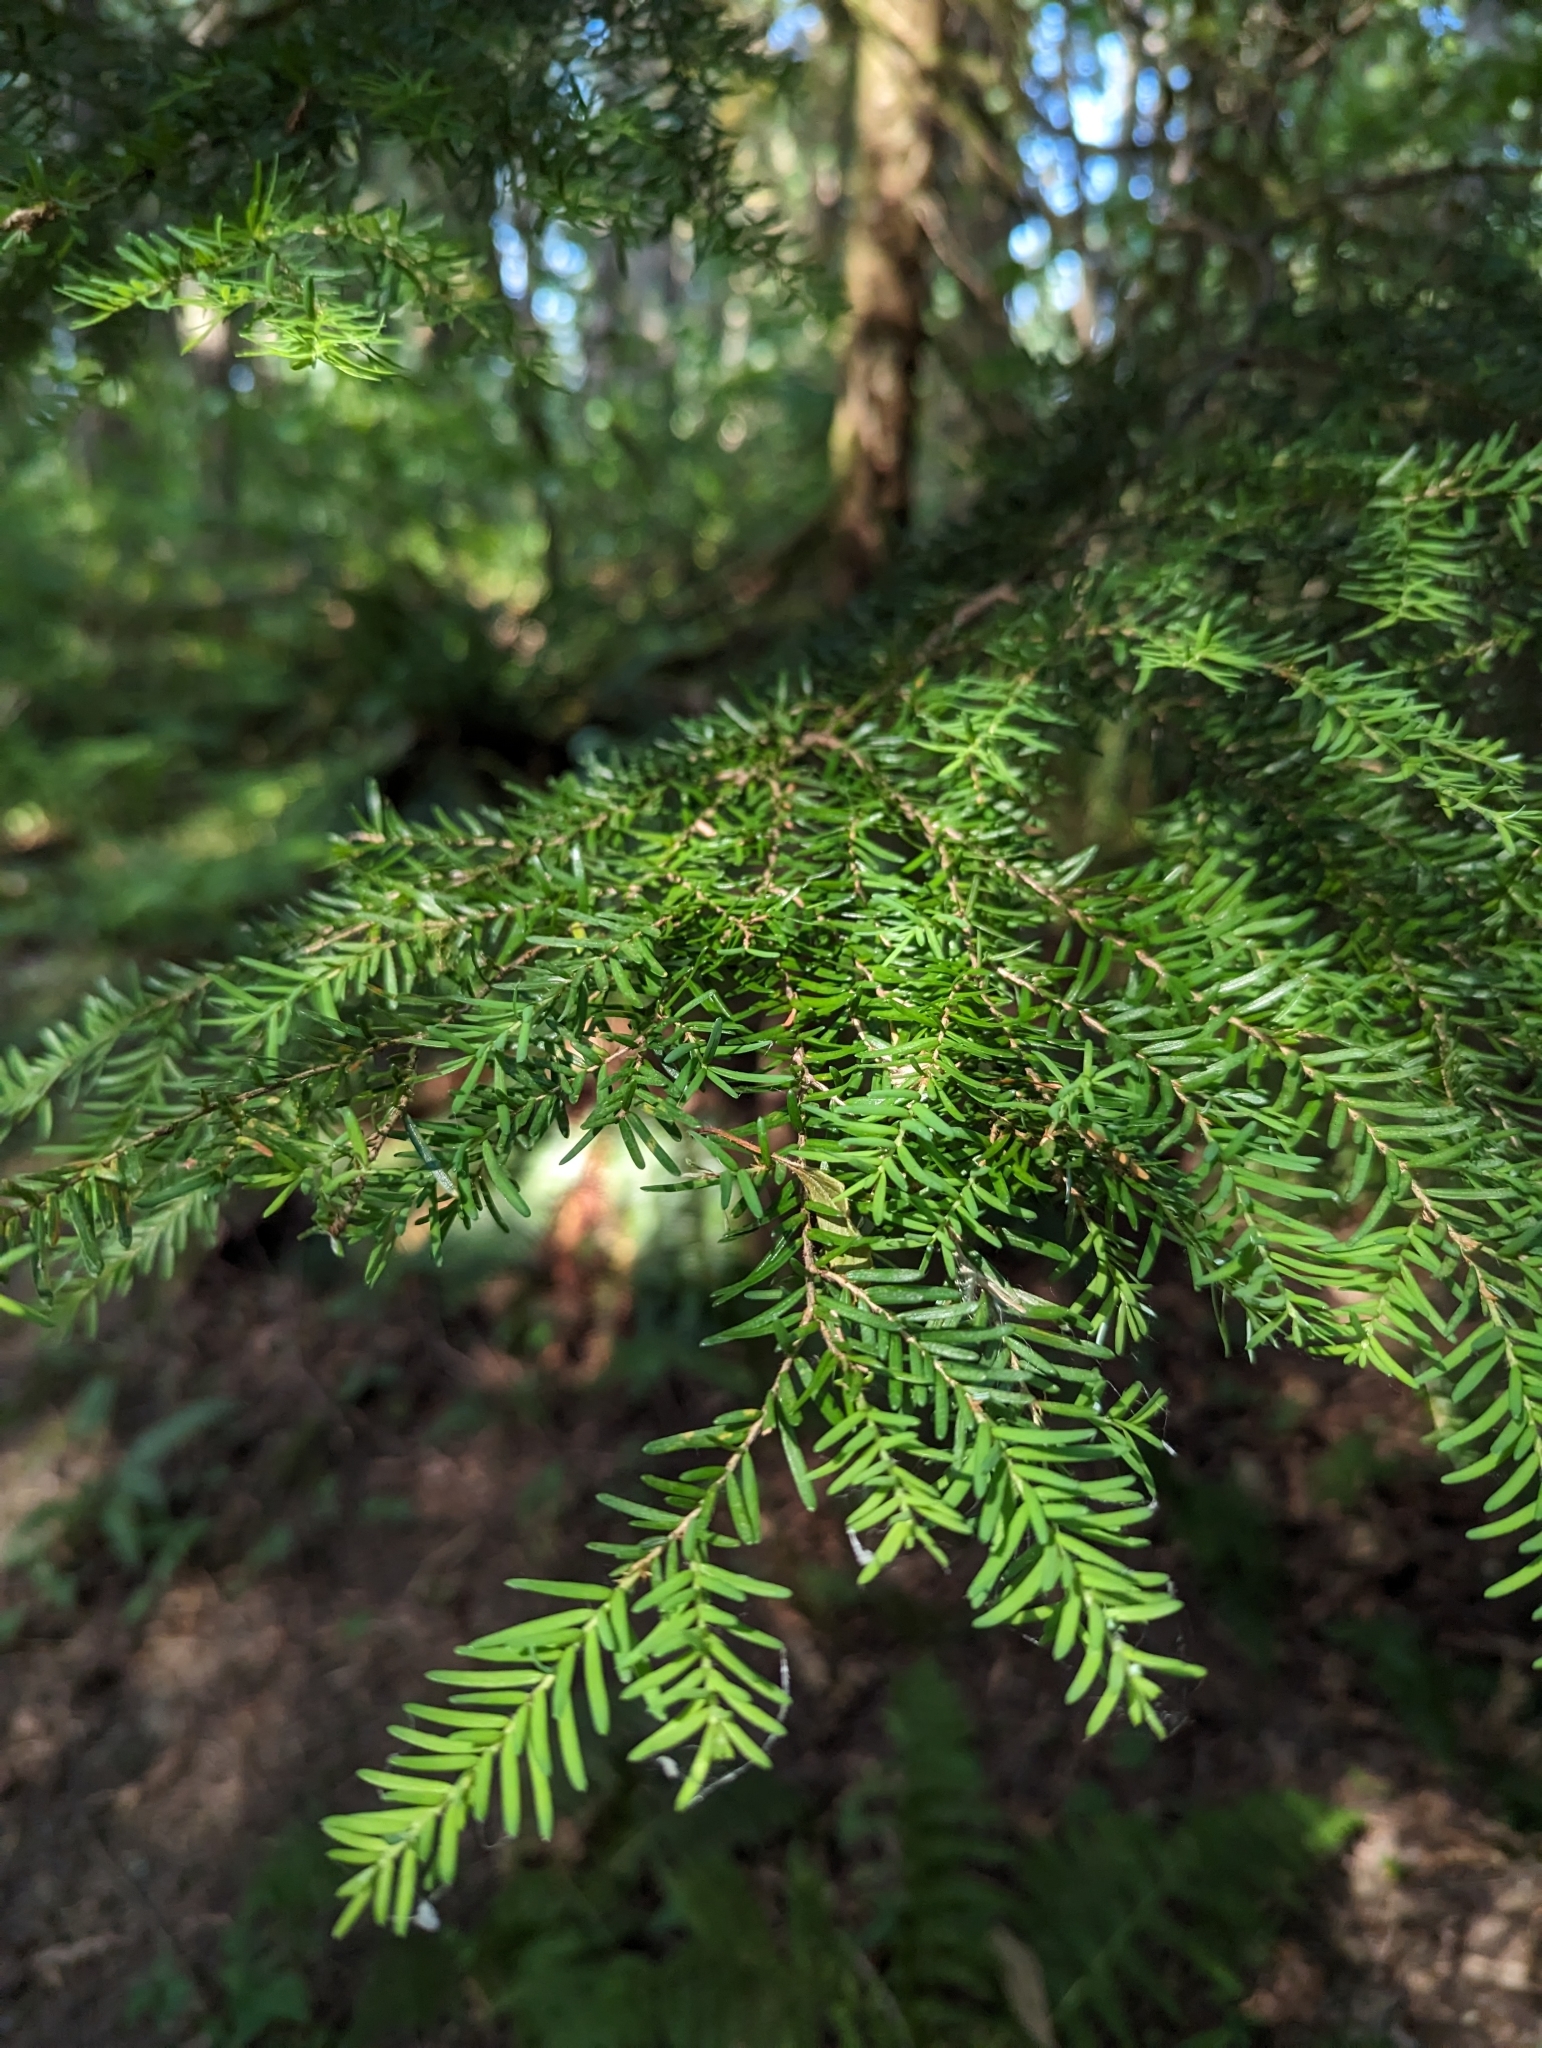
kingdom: Plantae
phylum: Tracheophyta
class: Pinopsida
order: Pinales
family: Pinaceae
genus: Tsuga
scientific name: Tsuga heterophylla
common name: Western hemlock
